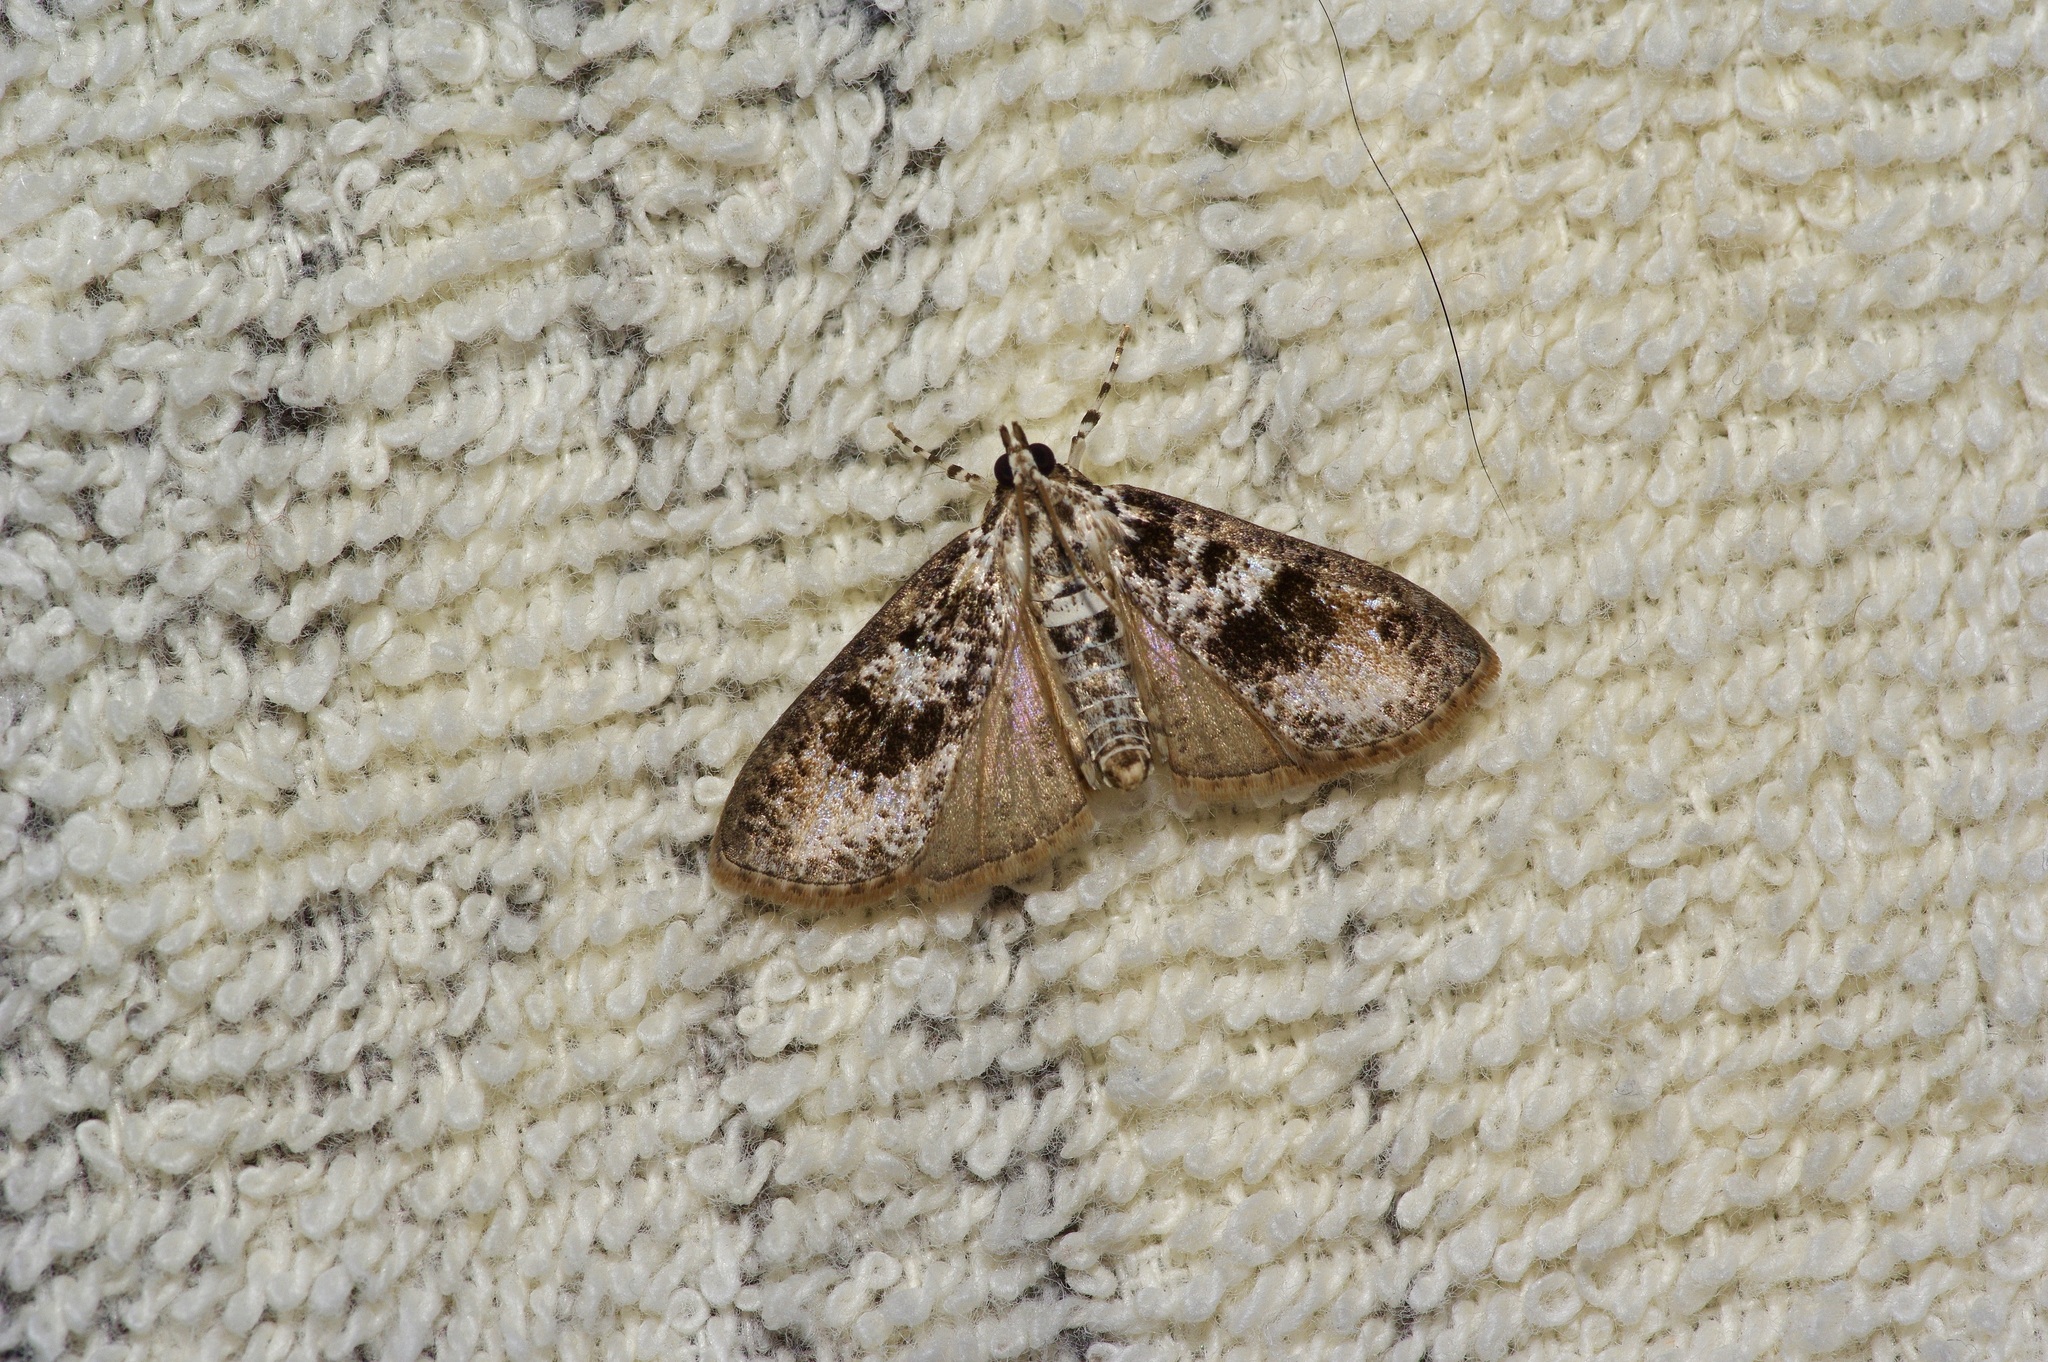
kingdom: Animalia
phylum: Arthropoda
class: Insecta
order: Lepidoptera
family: Crambidae
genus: Palpita
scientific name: Palpita magniferalis
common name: Splendid palpita moth
